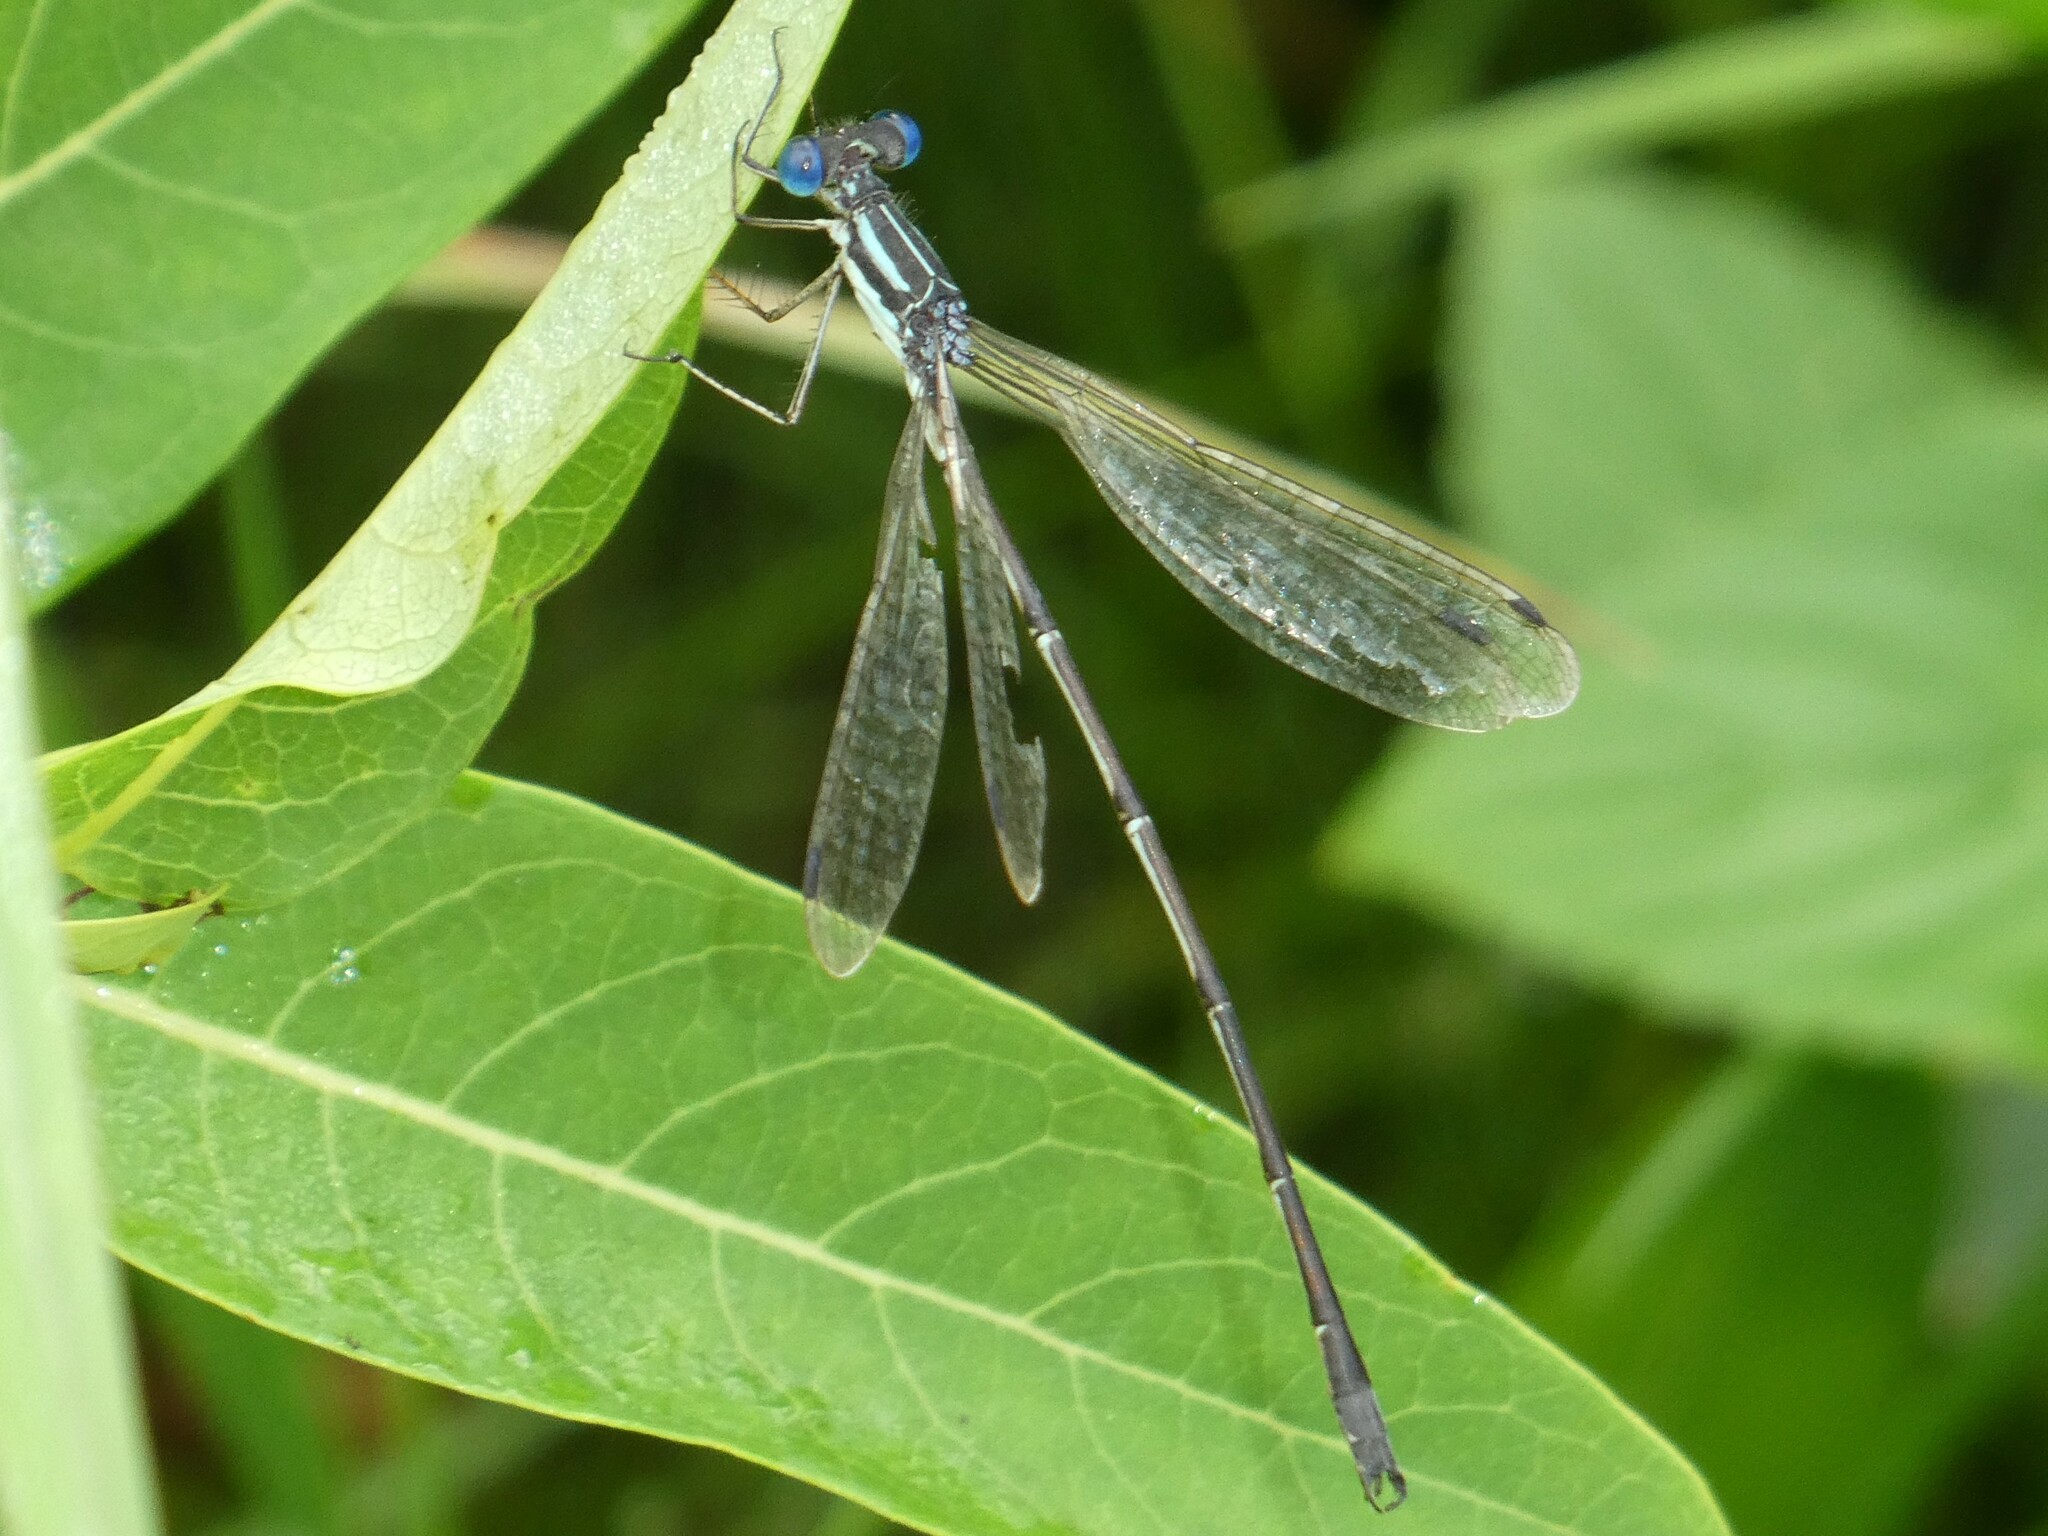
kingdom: Animalia
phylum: Arthropoda
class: Insecta
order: Odonata
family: Lestidae
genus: Lestes
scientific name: Lestes rectangularis
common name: Slender spreadwing
